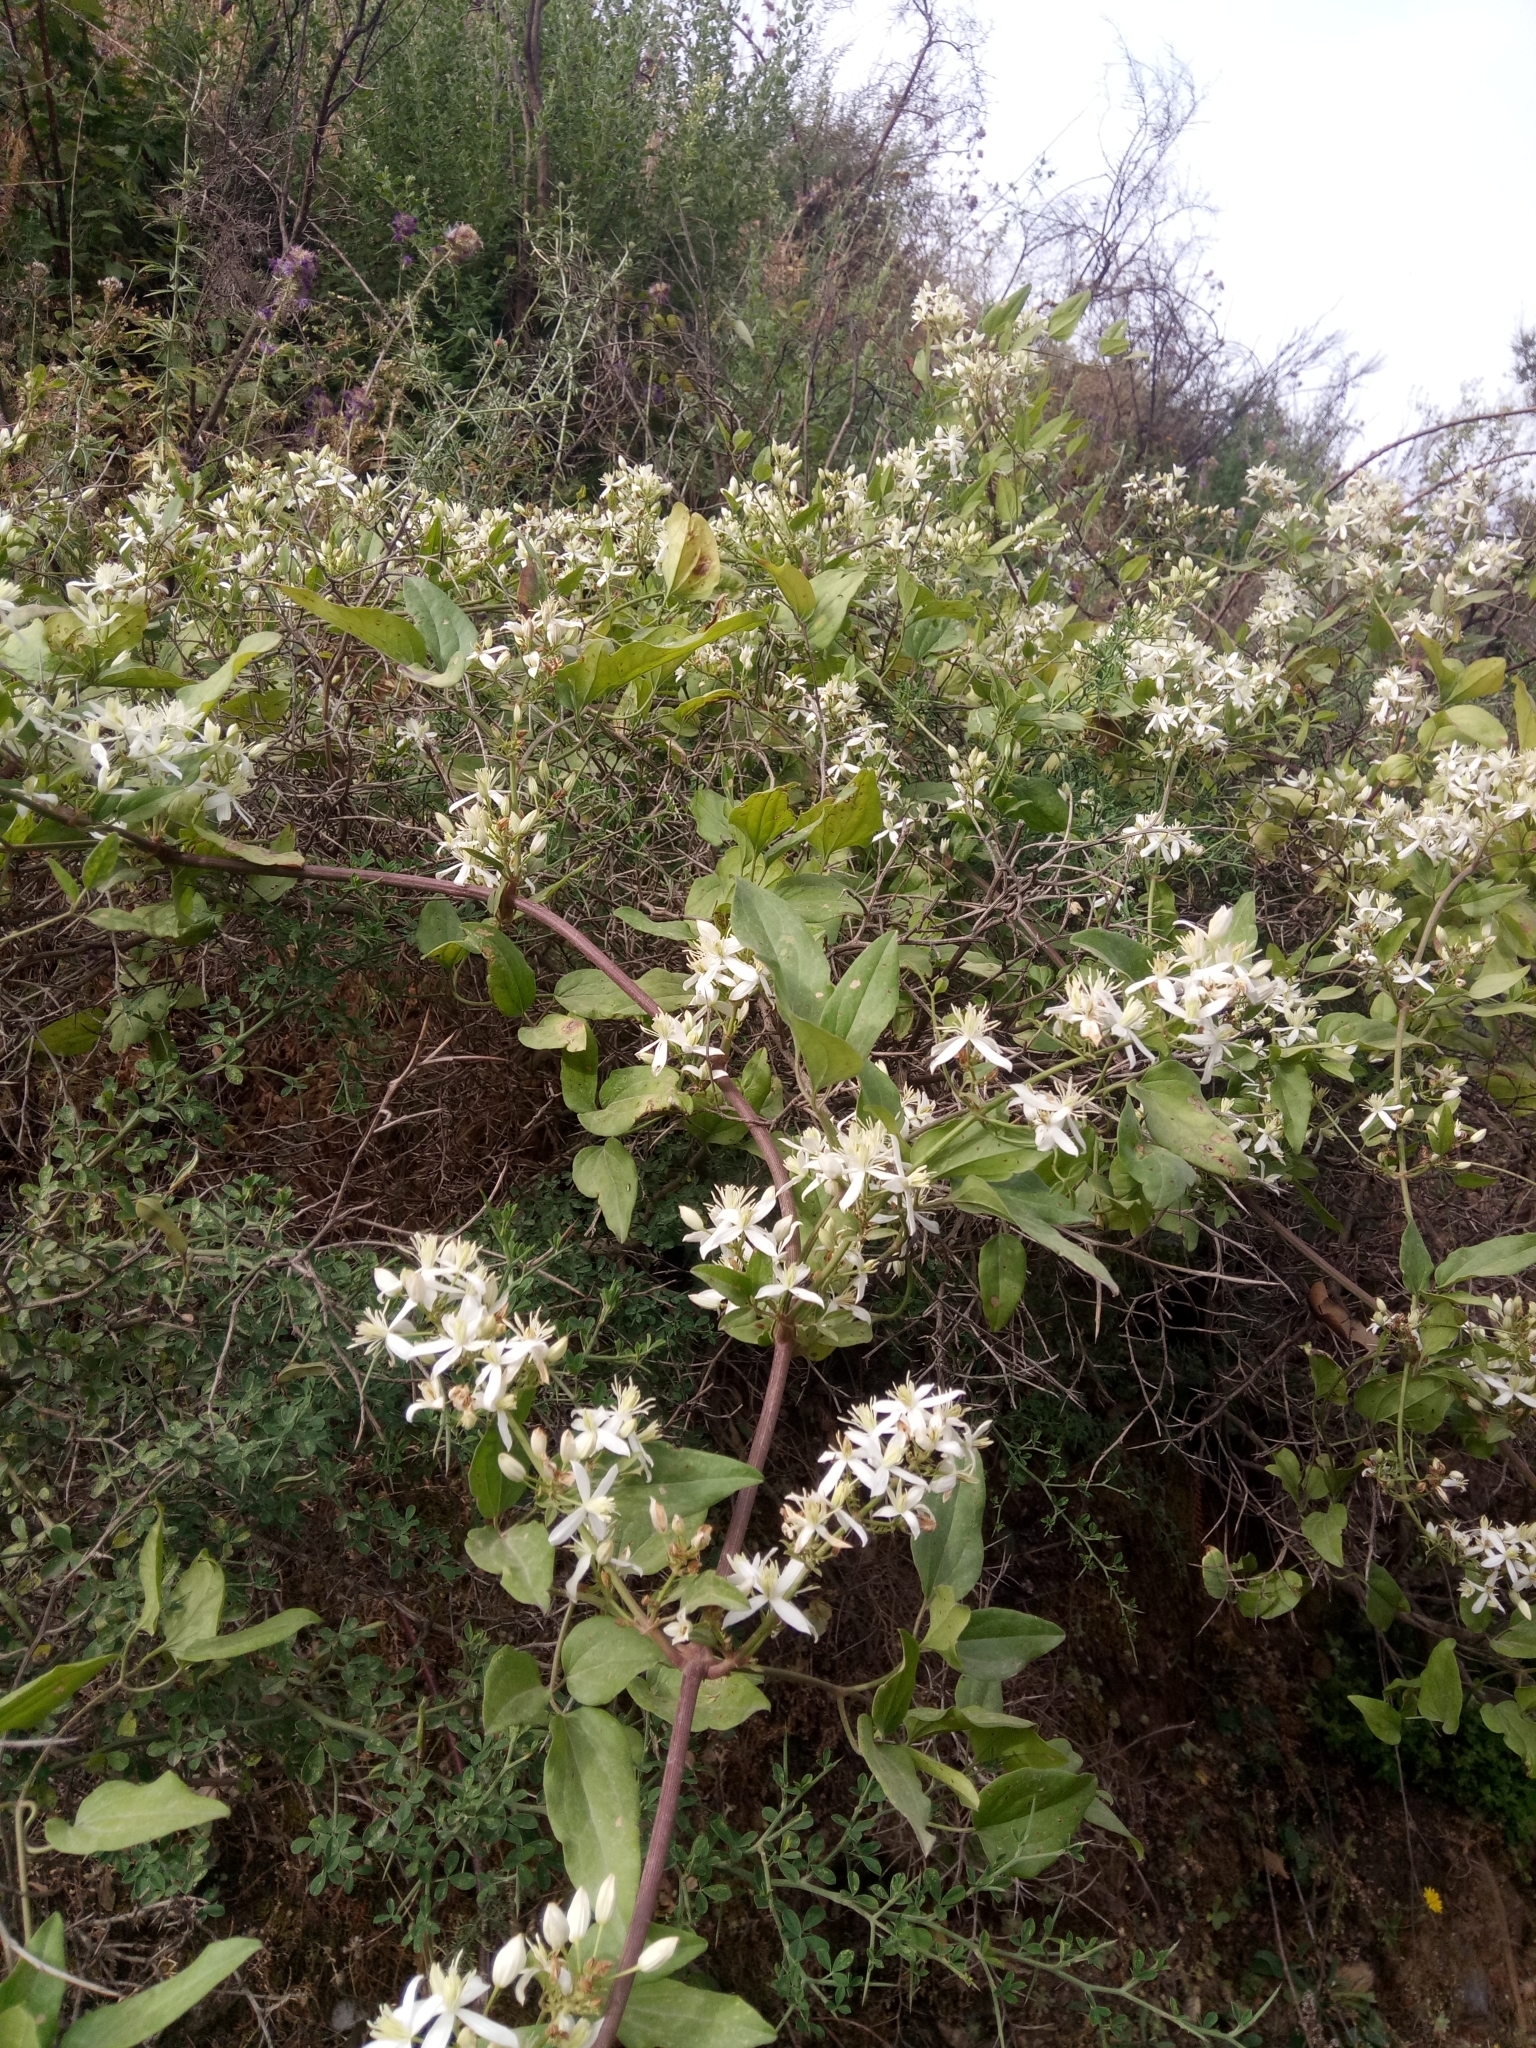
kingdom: Plantae
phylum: Tracheophyta
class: Magnoliopsida
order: Ranunculales
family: Ranunculaceae
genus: Clematis
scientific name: Clematis flammula
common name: Virgin's-bower
